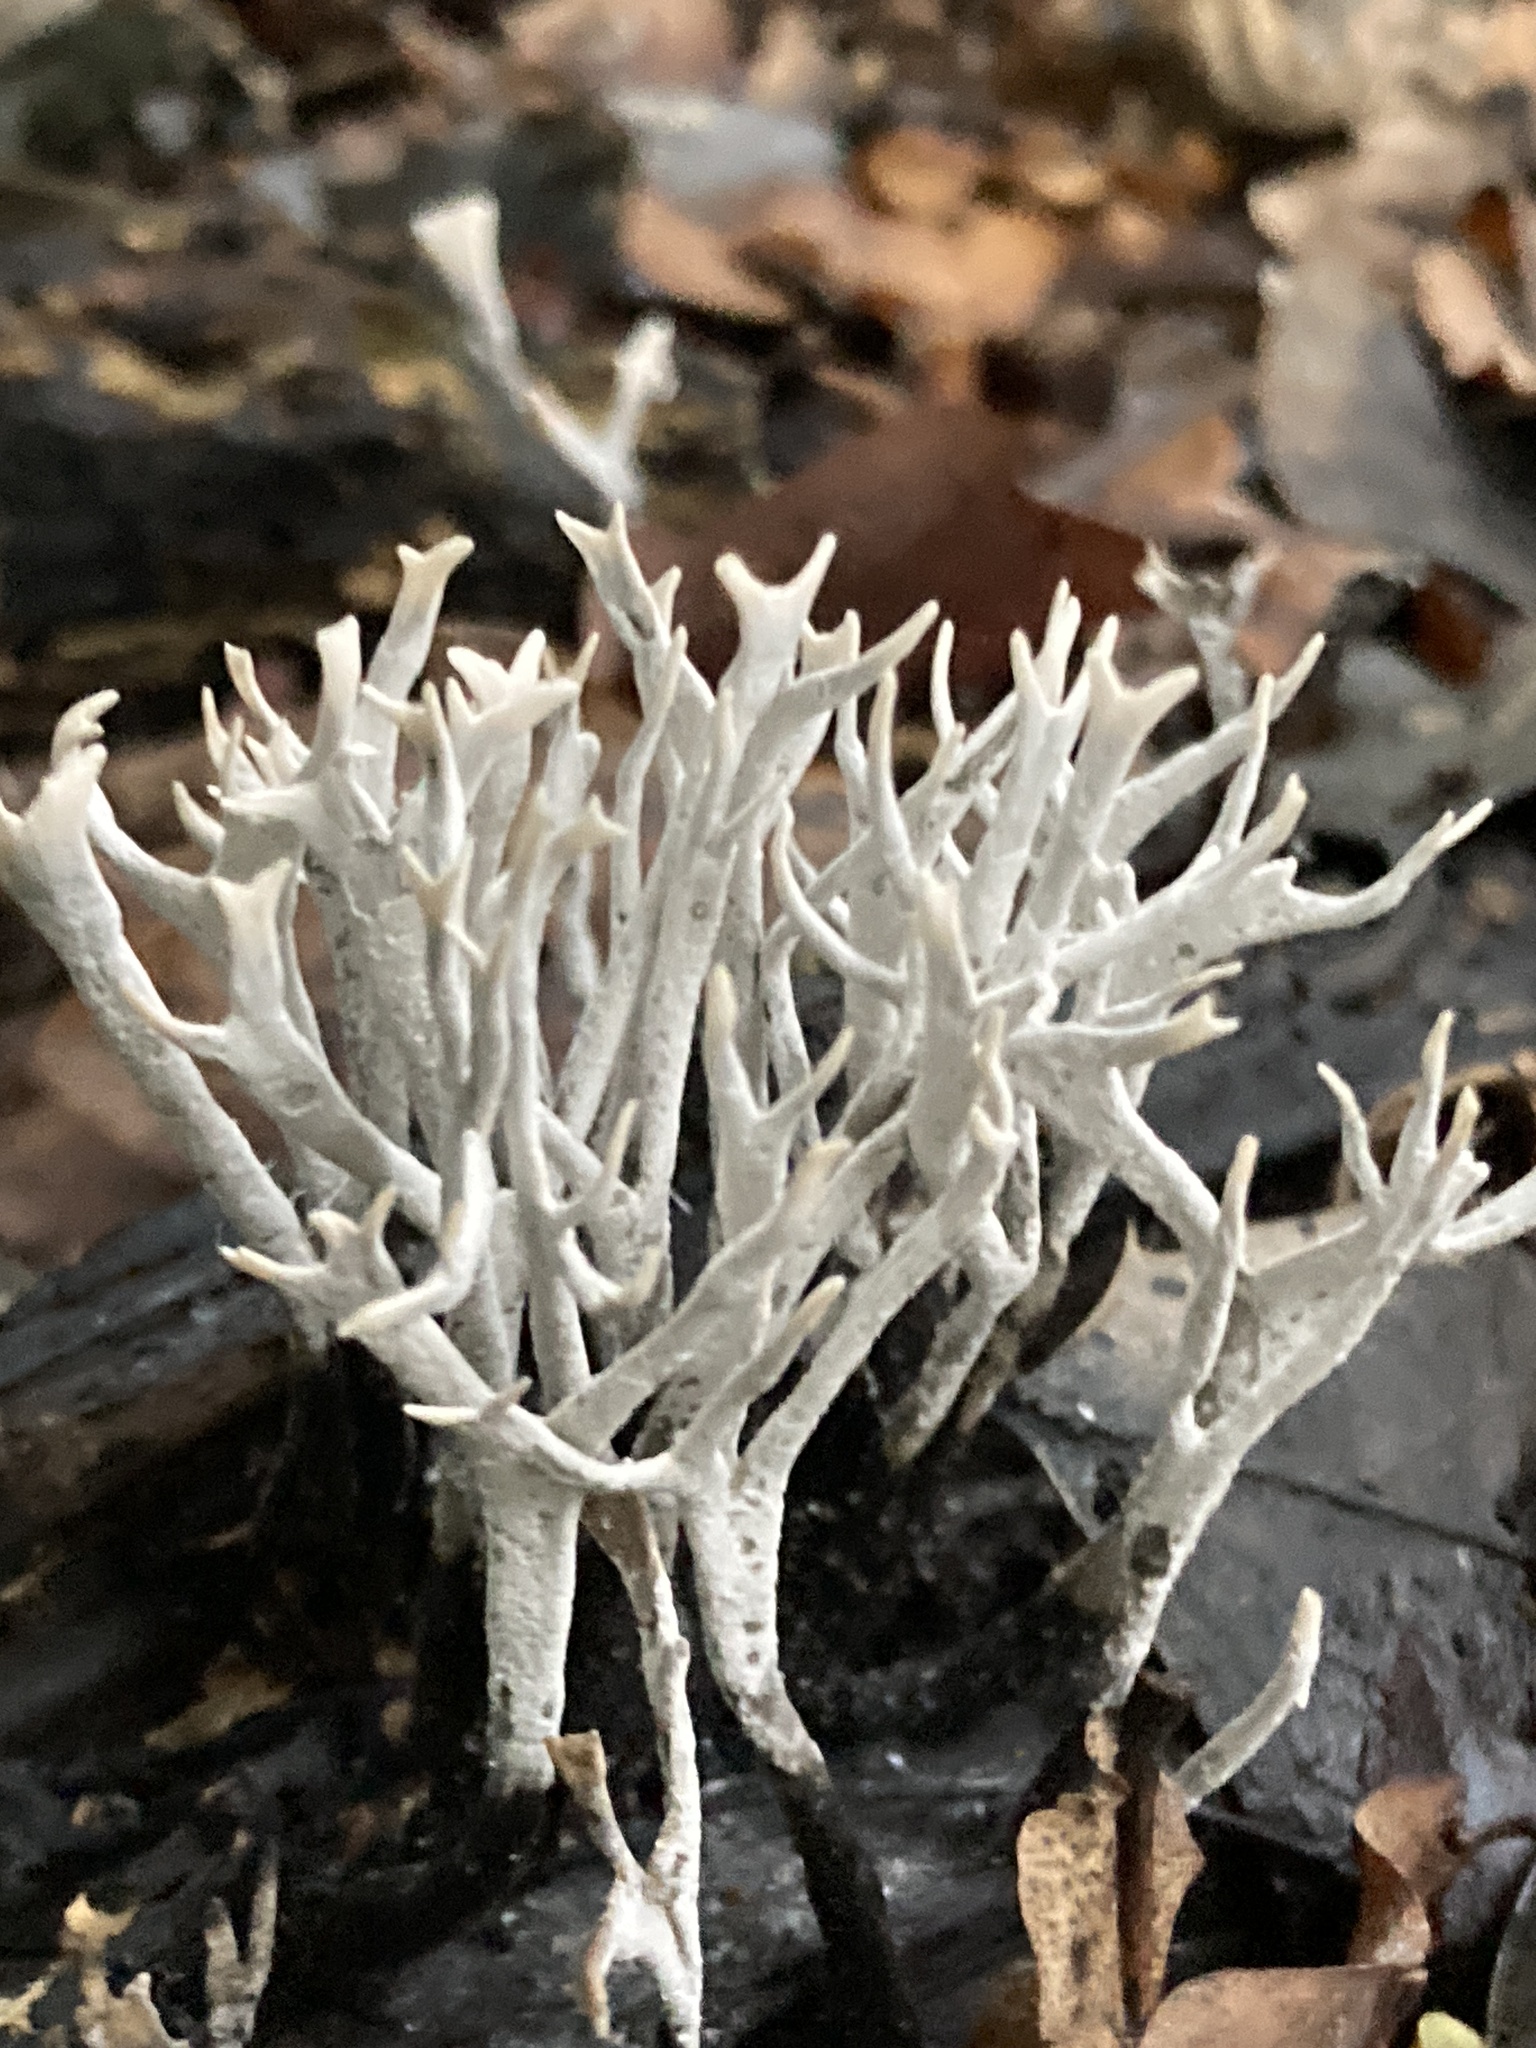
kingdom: Fungi
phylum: Ascomycota
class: Sordariomycetes
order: Xylariales
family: Xylariaceae
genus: Xylaria
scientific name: Xylaria hypoxylon
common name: Candle-snuff fungus
